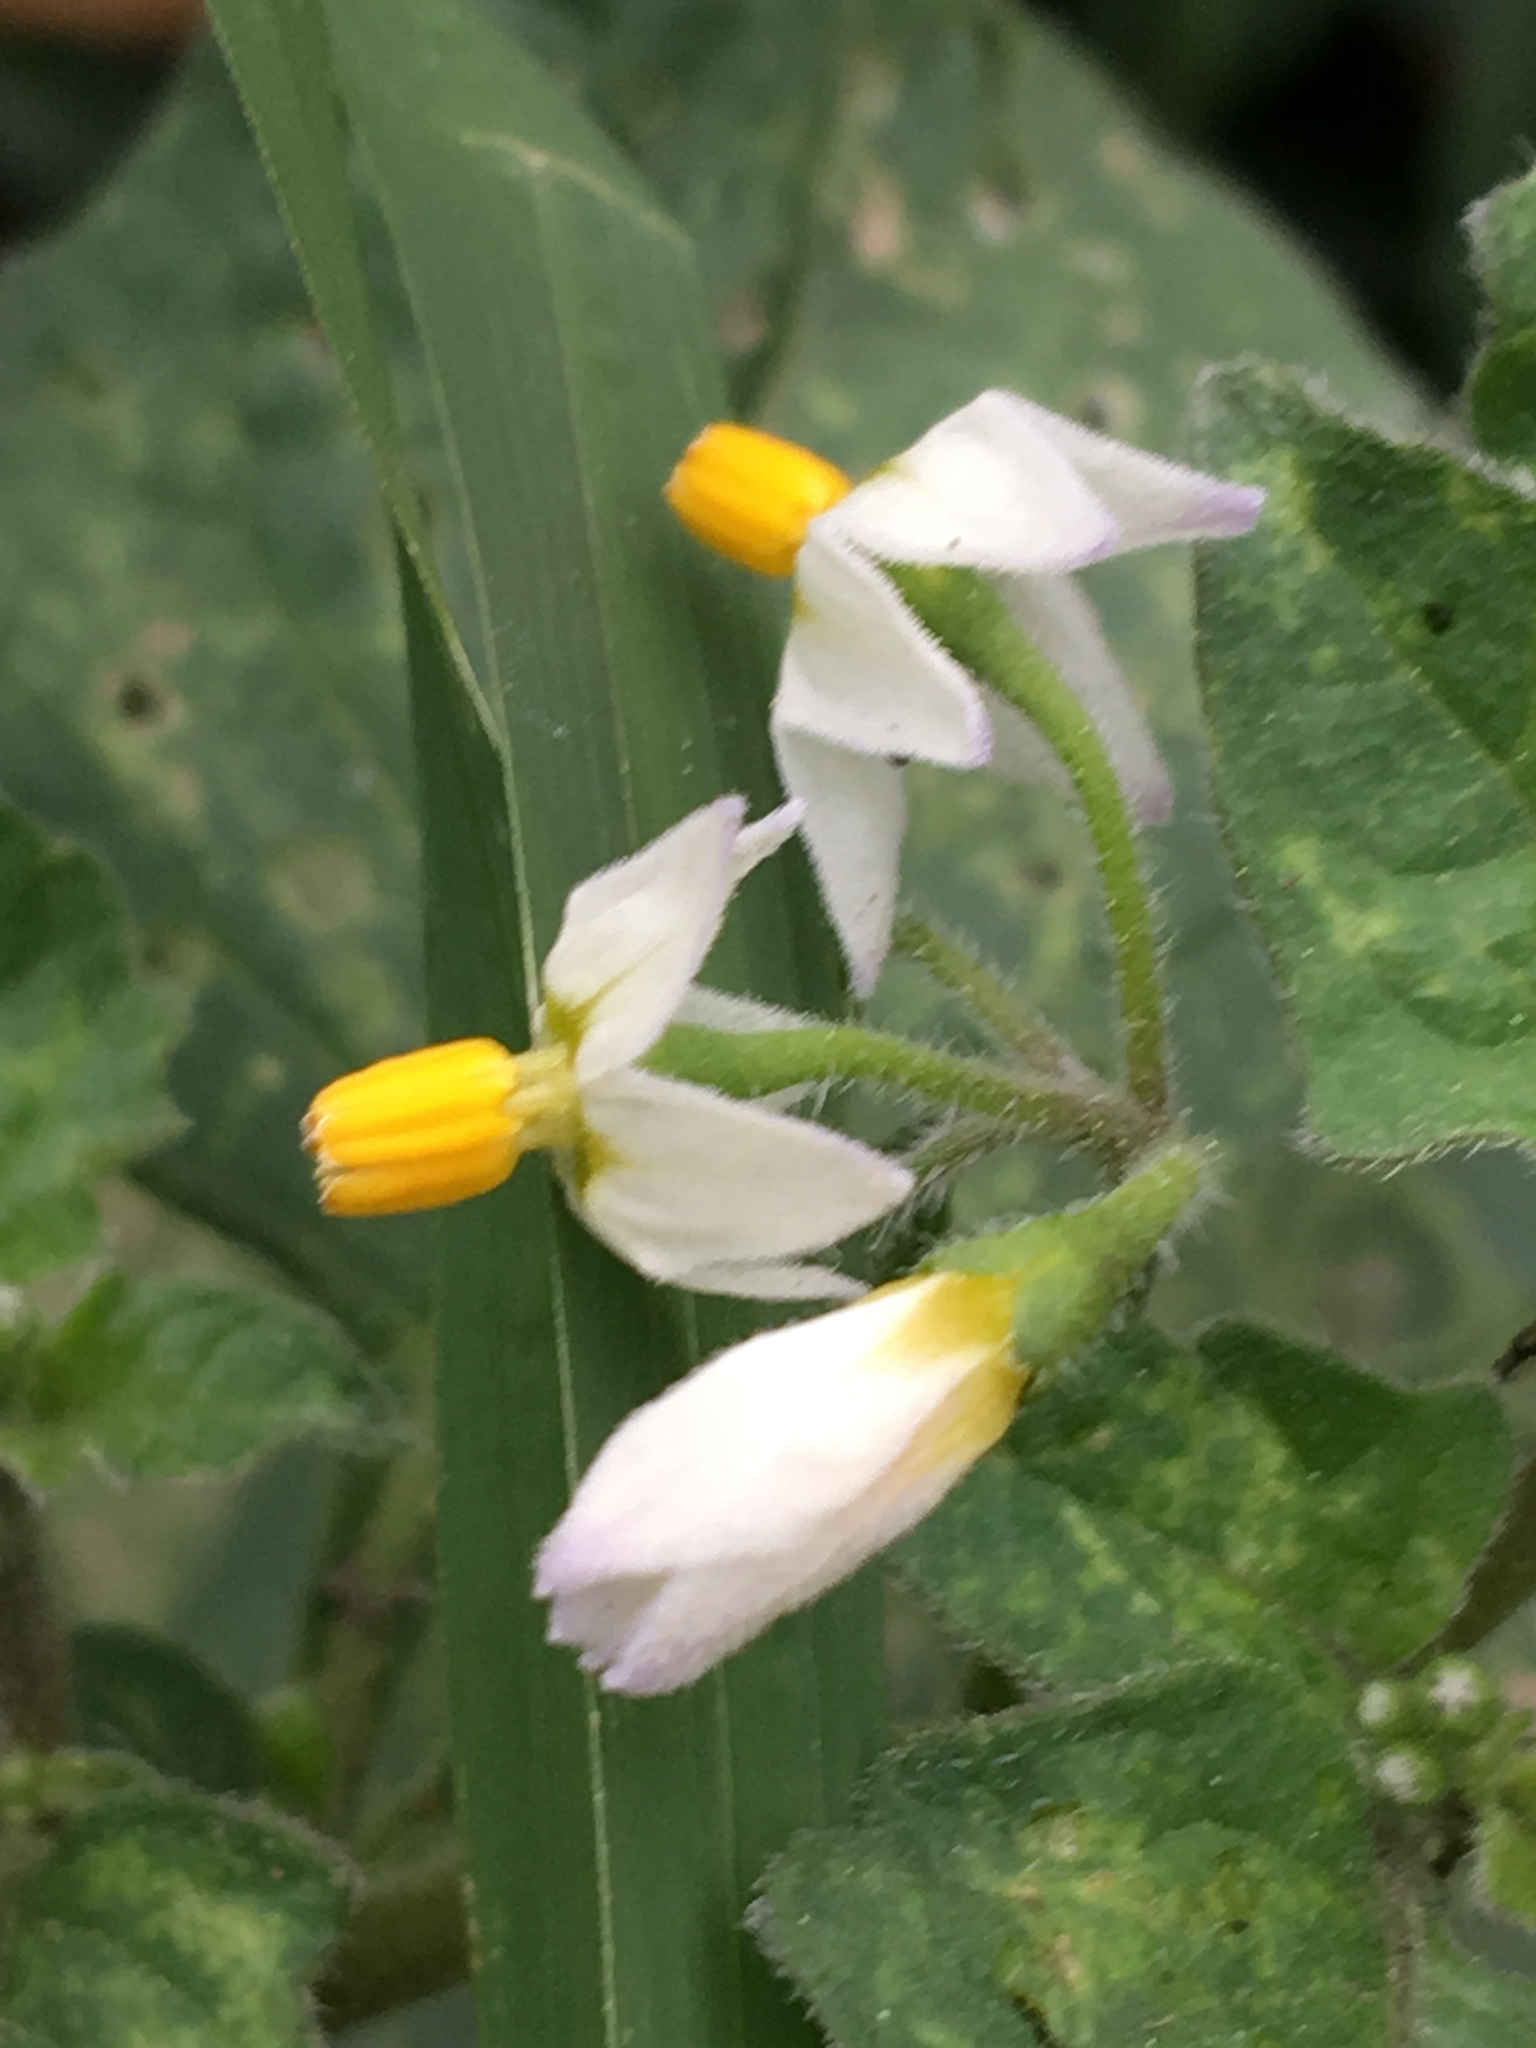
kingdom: Plantae
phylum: Tracheophyta
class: Magnoliopsida
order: Solanales
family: Solanaceae
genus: Solanum
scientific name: Solanum nigrum
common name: Black nightshade
